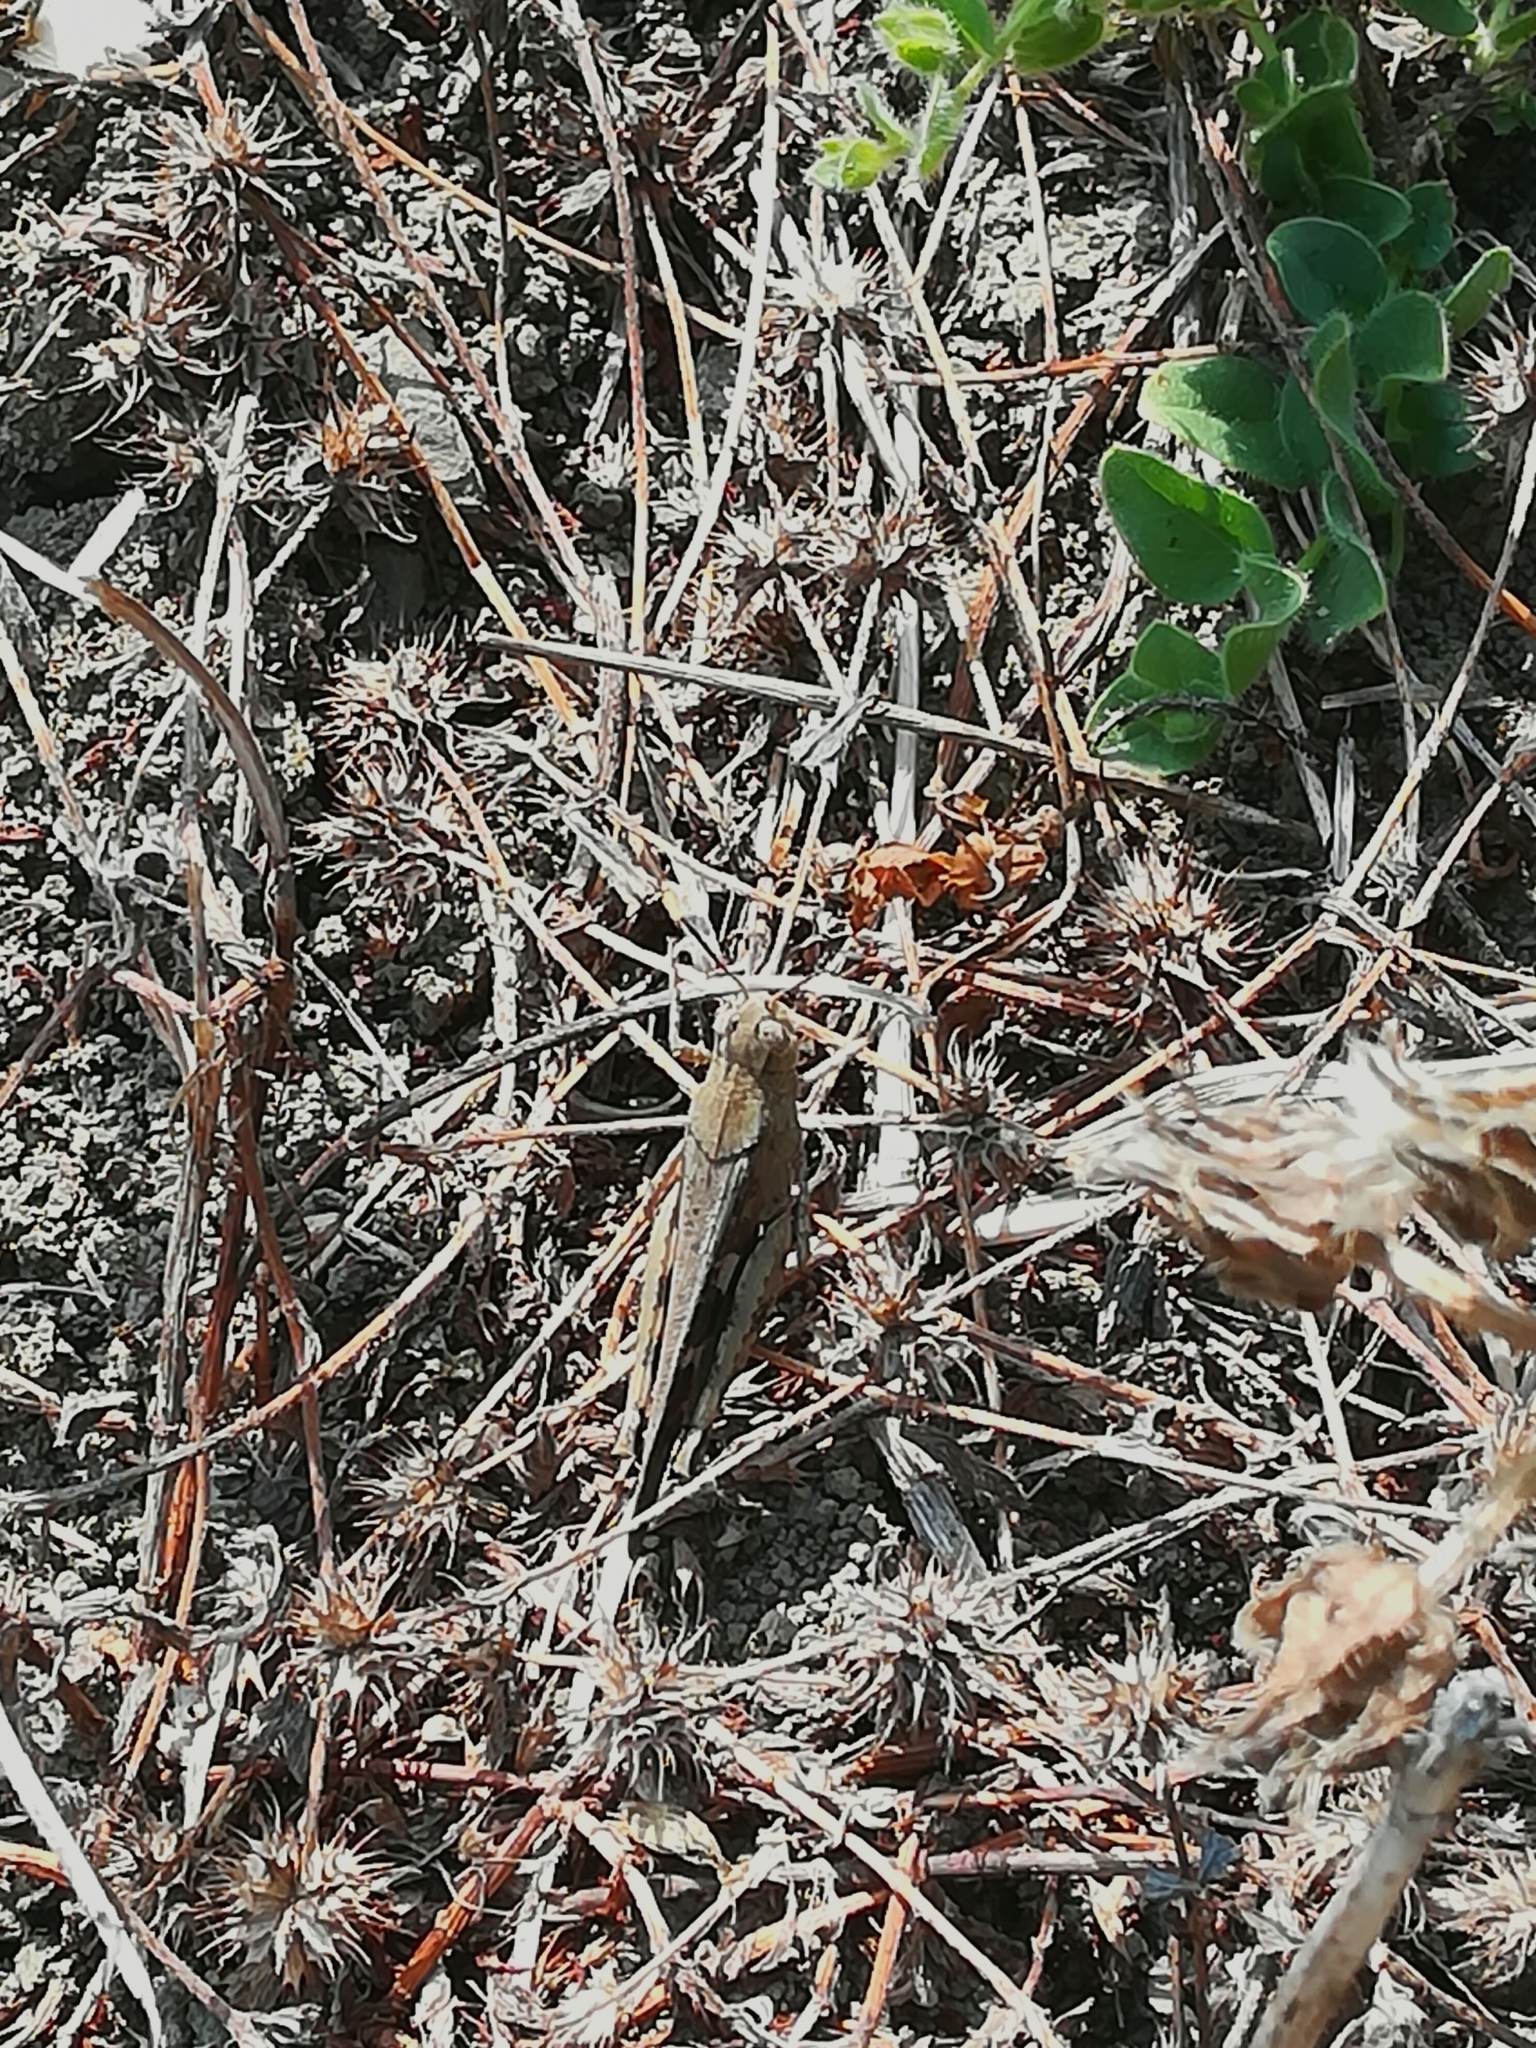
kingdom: Animalia
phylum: Arthropoda
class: Insecta
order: Orthoptera
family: Acrididae
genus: Aiolopus
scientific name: Aiolopus strepens
